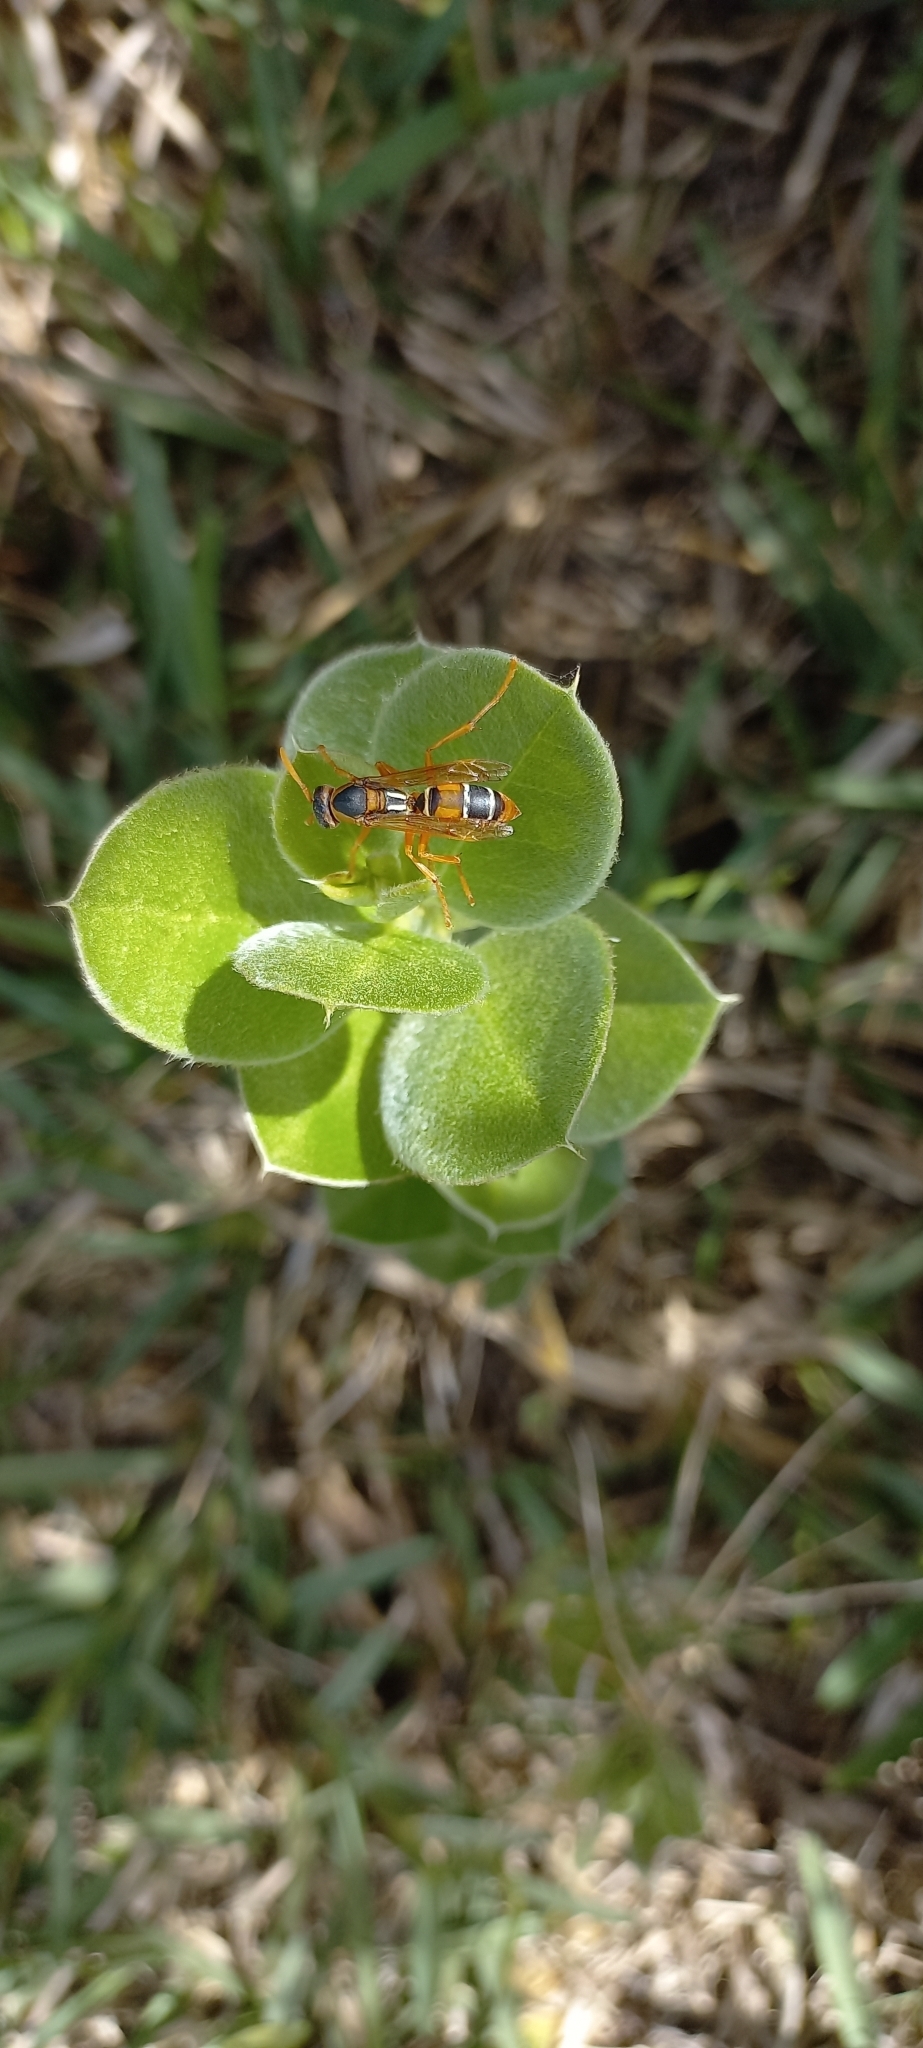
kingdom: Animalia
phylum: Arthropoda
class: Insecta
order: Hymenoptera
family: Eumenidae
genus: Polistes
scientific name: Polistes marginalis
